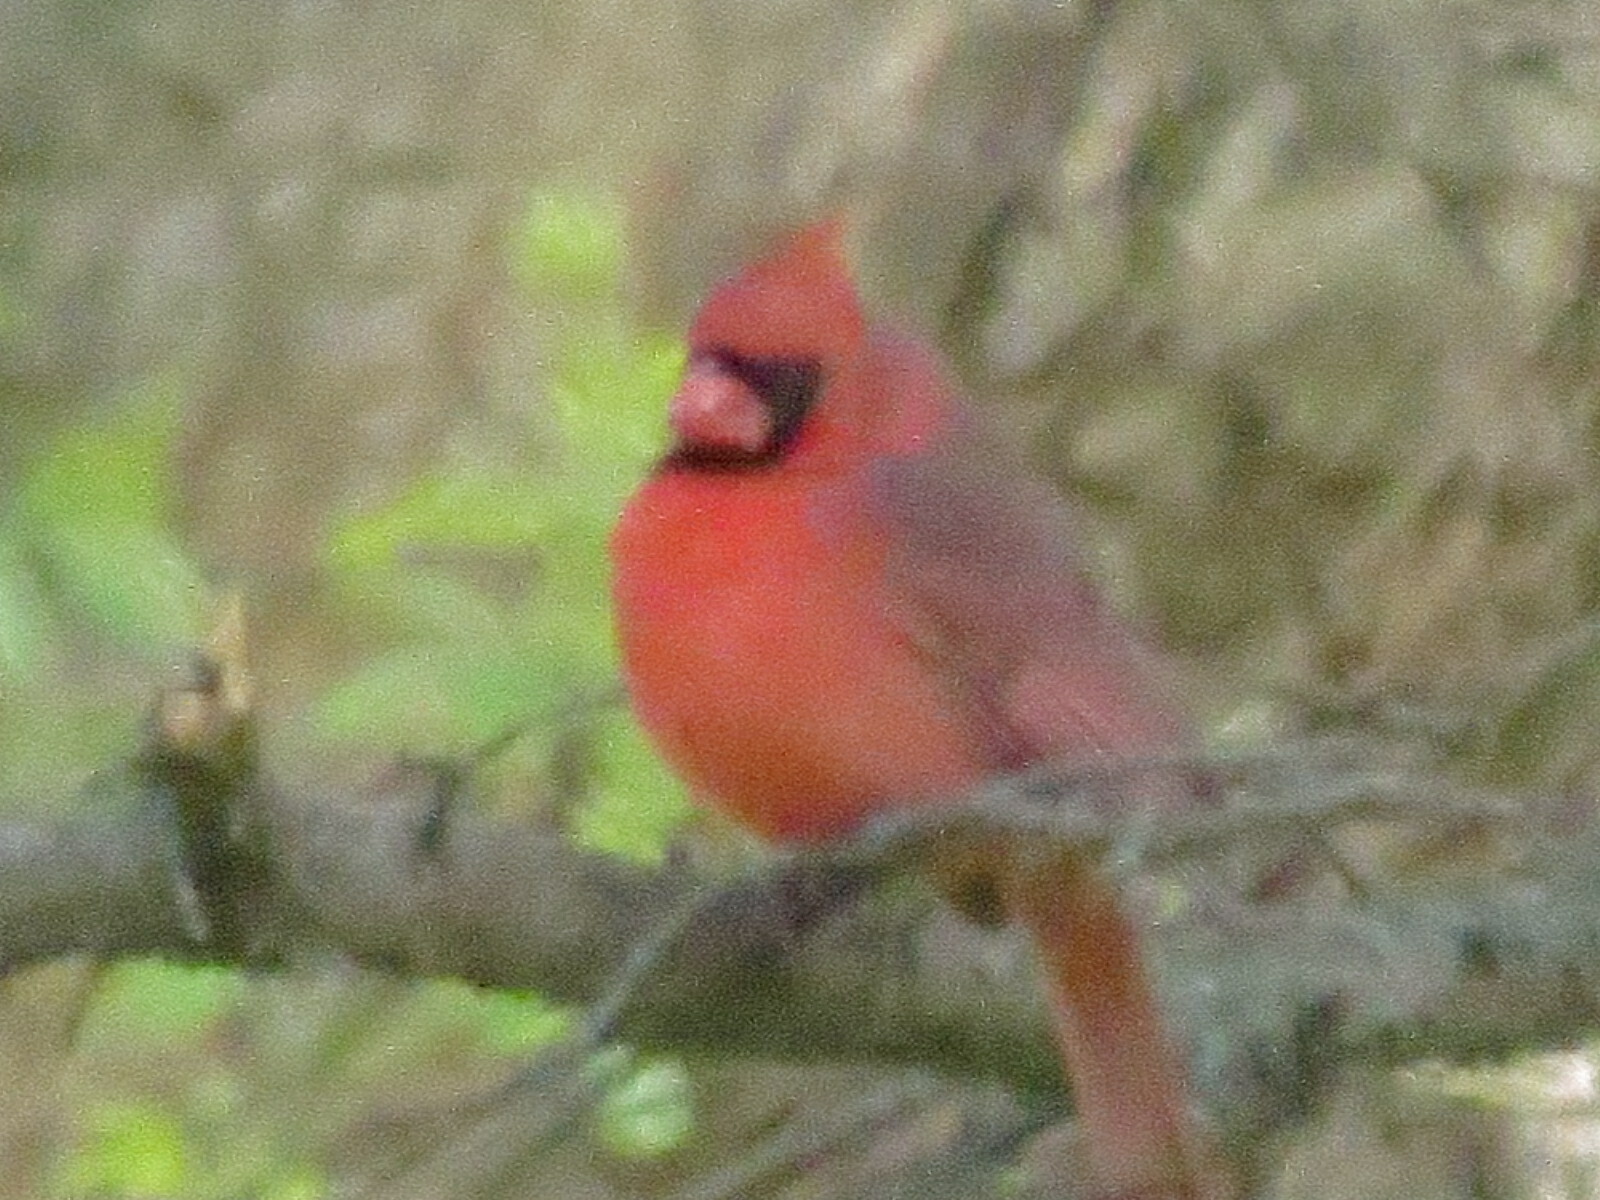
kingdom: Animalia
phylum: Chordata
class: Aves
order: Passeriformes
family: Cardinalidae
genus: Cardinalis
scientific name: Cardinalis cardinalis
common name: Northern cardinal
